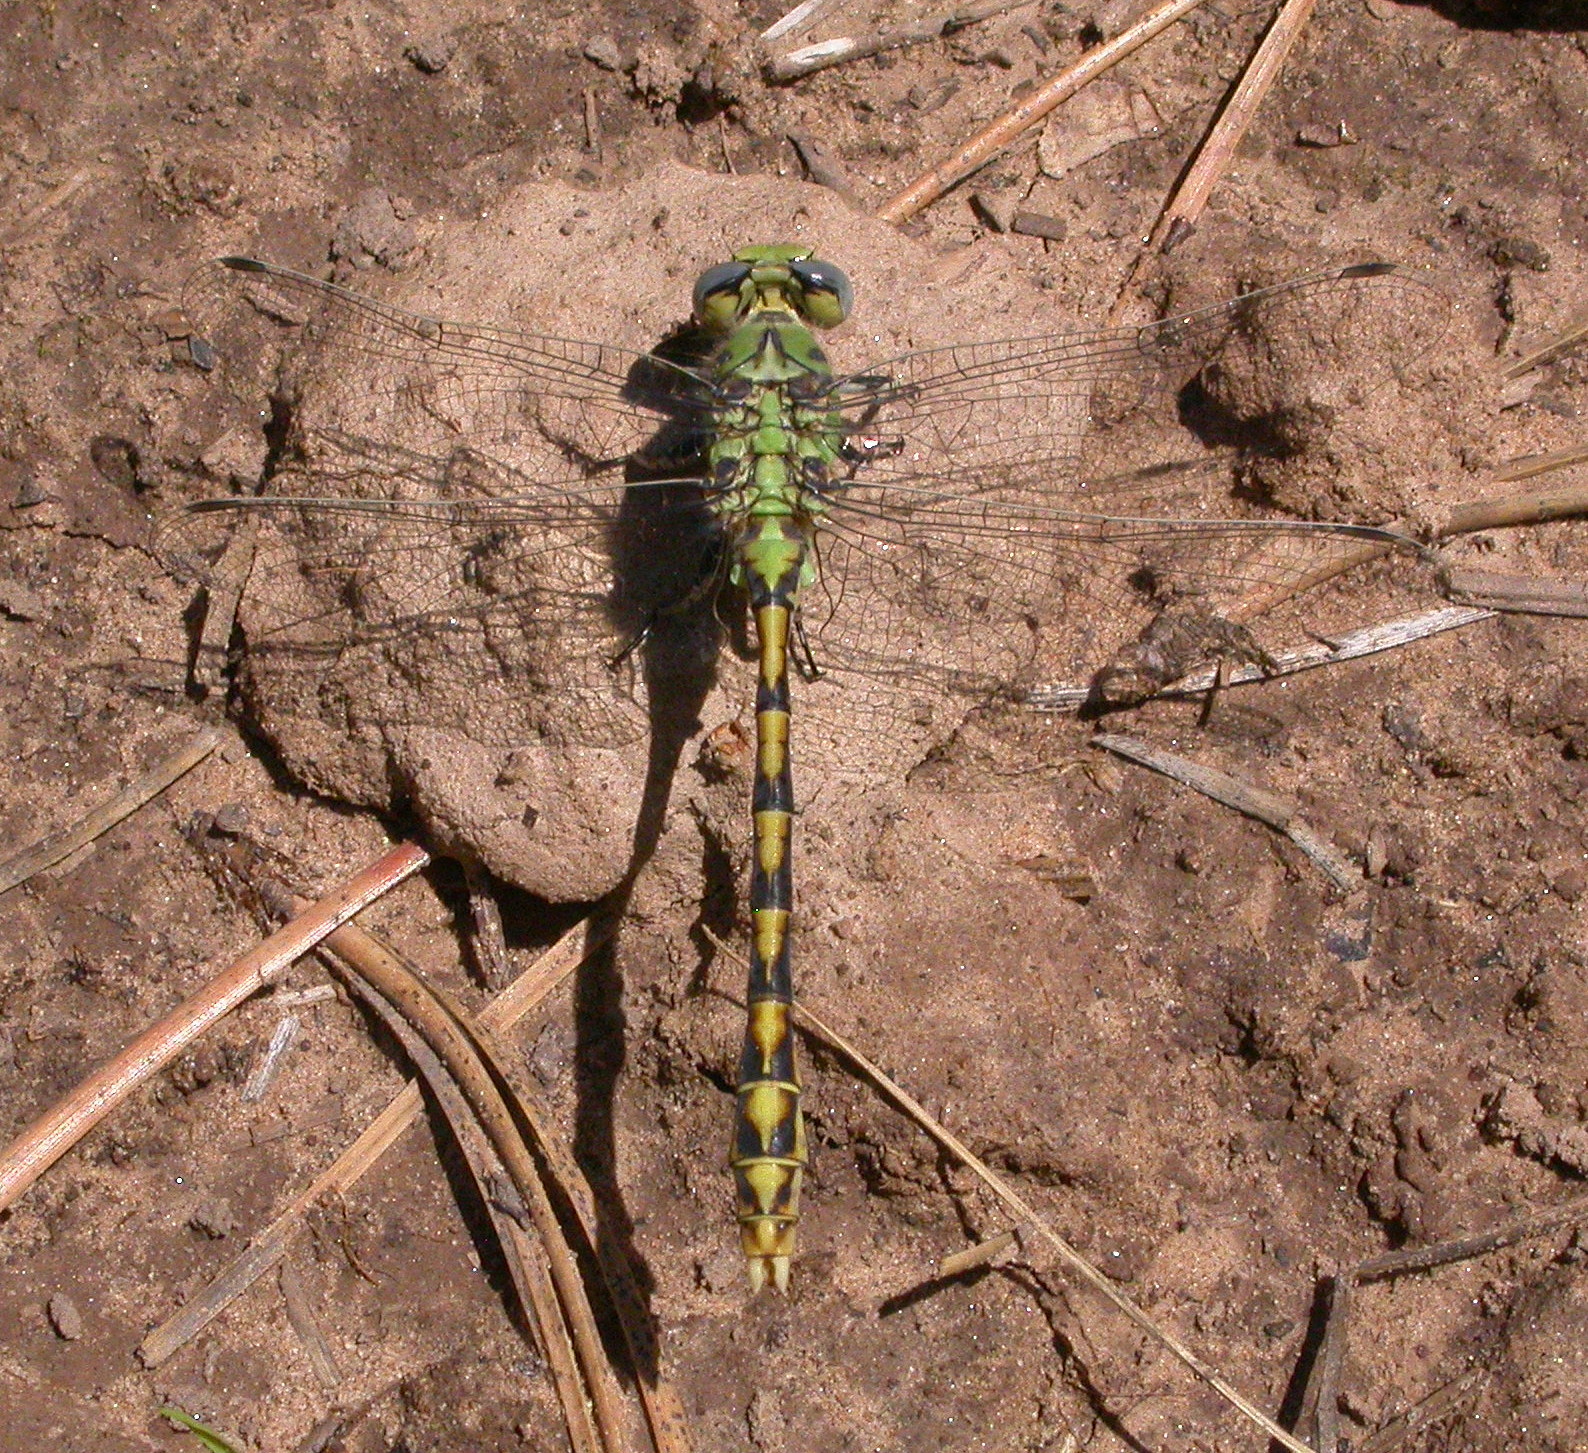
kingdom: Animalia
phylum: Arthropoda
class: Insecta
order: Odonata
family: Gomphidae
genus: Ophiogomphus
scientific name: Ophiogomphus severus
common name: Pale snaketail
